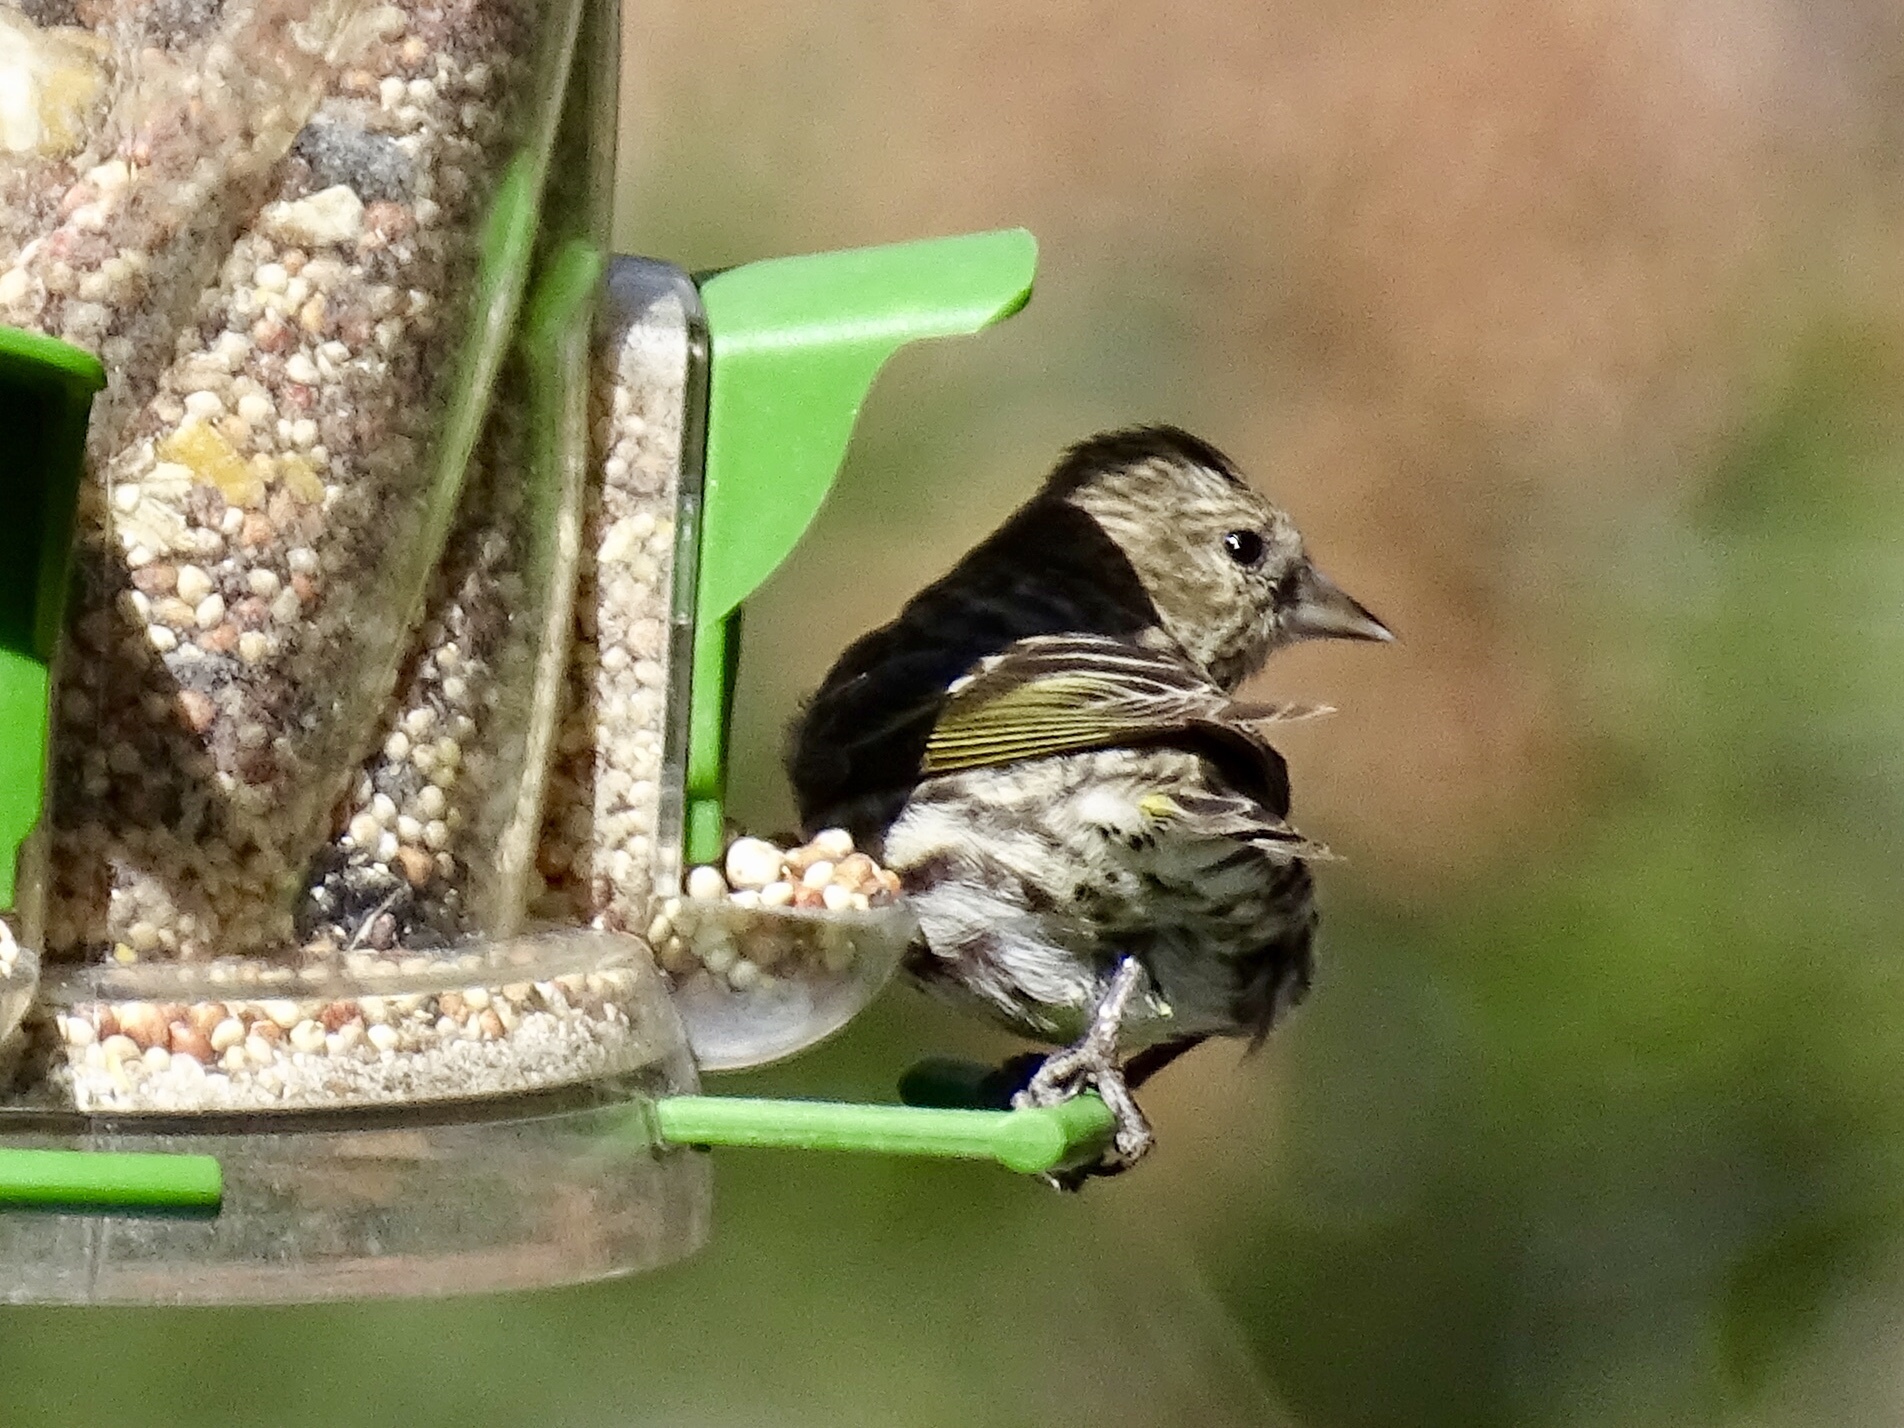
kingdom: Animalia
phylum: Chordata
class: Aves
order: Passeriformes
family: Fringillidae
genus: Spinus
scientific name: Spinus pinus
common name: Pine siskin
